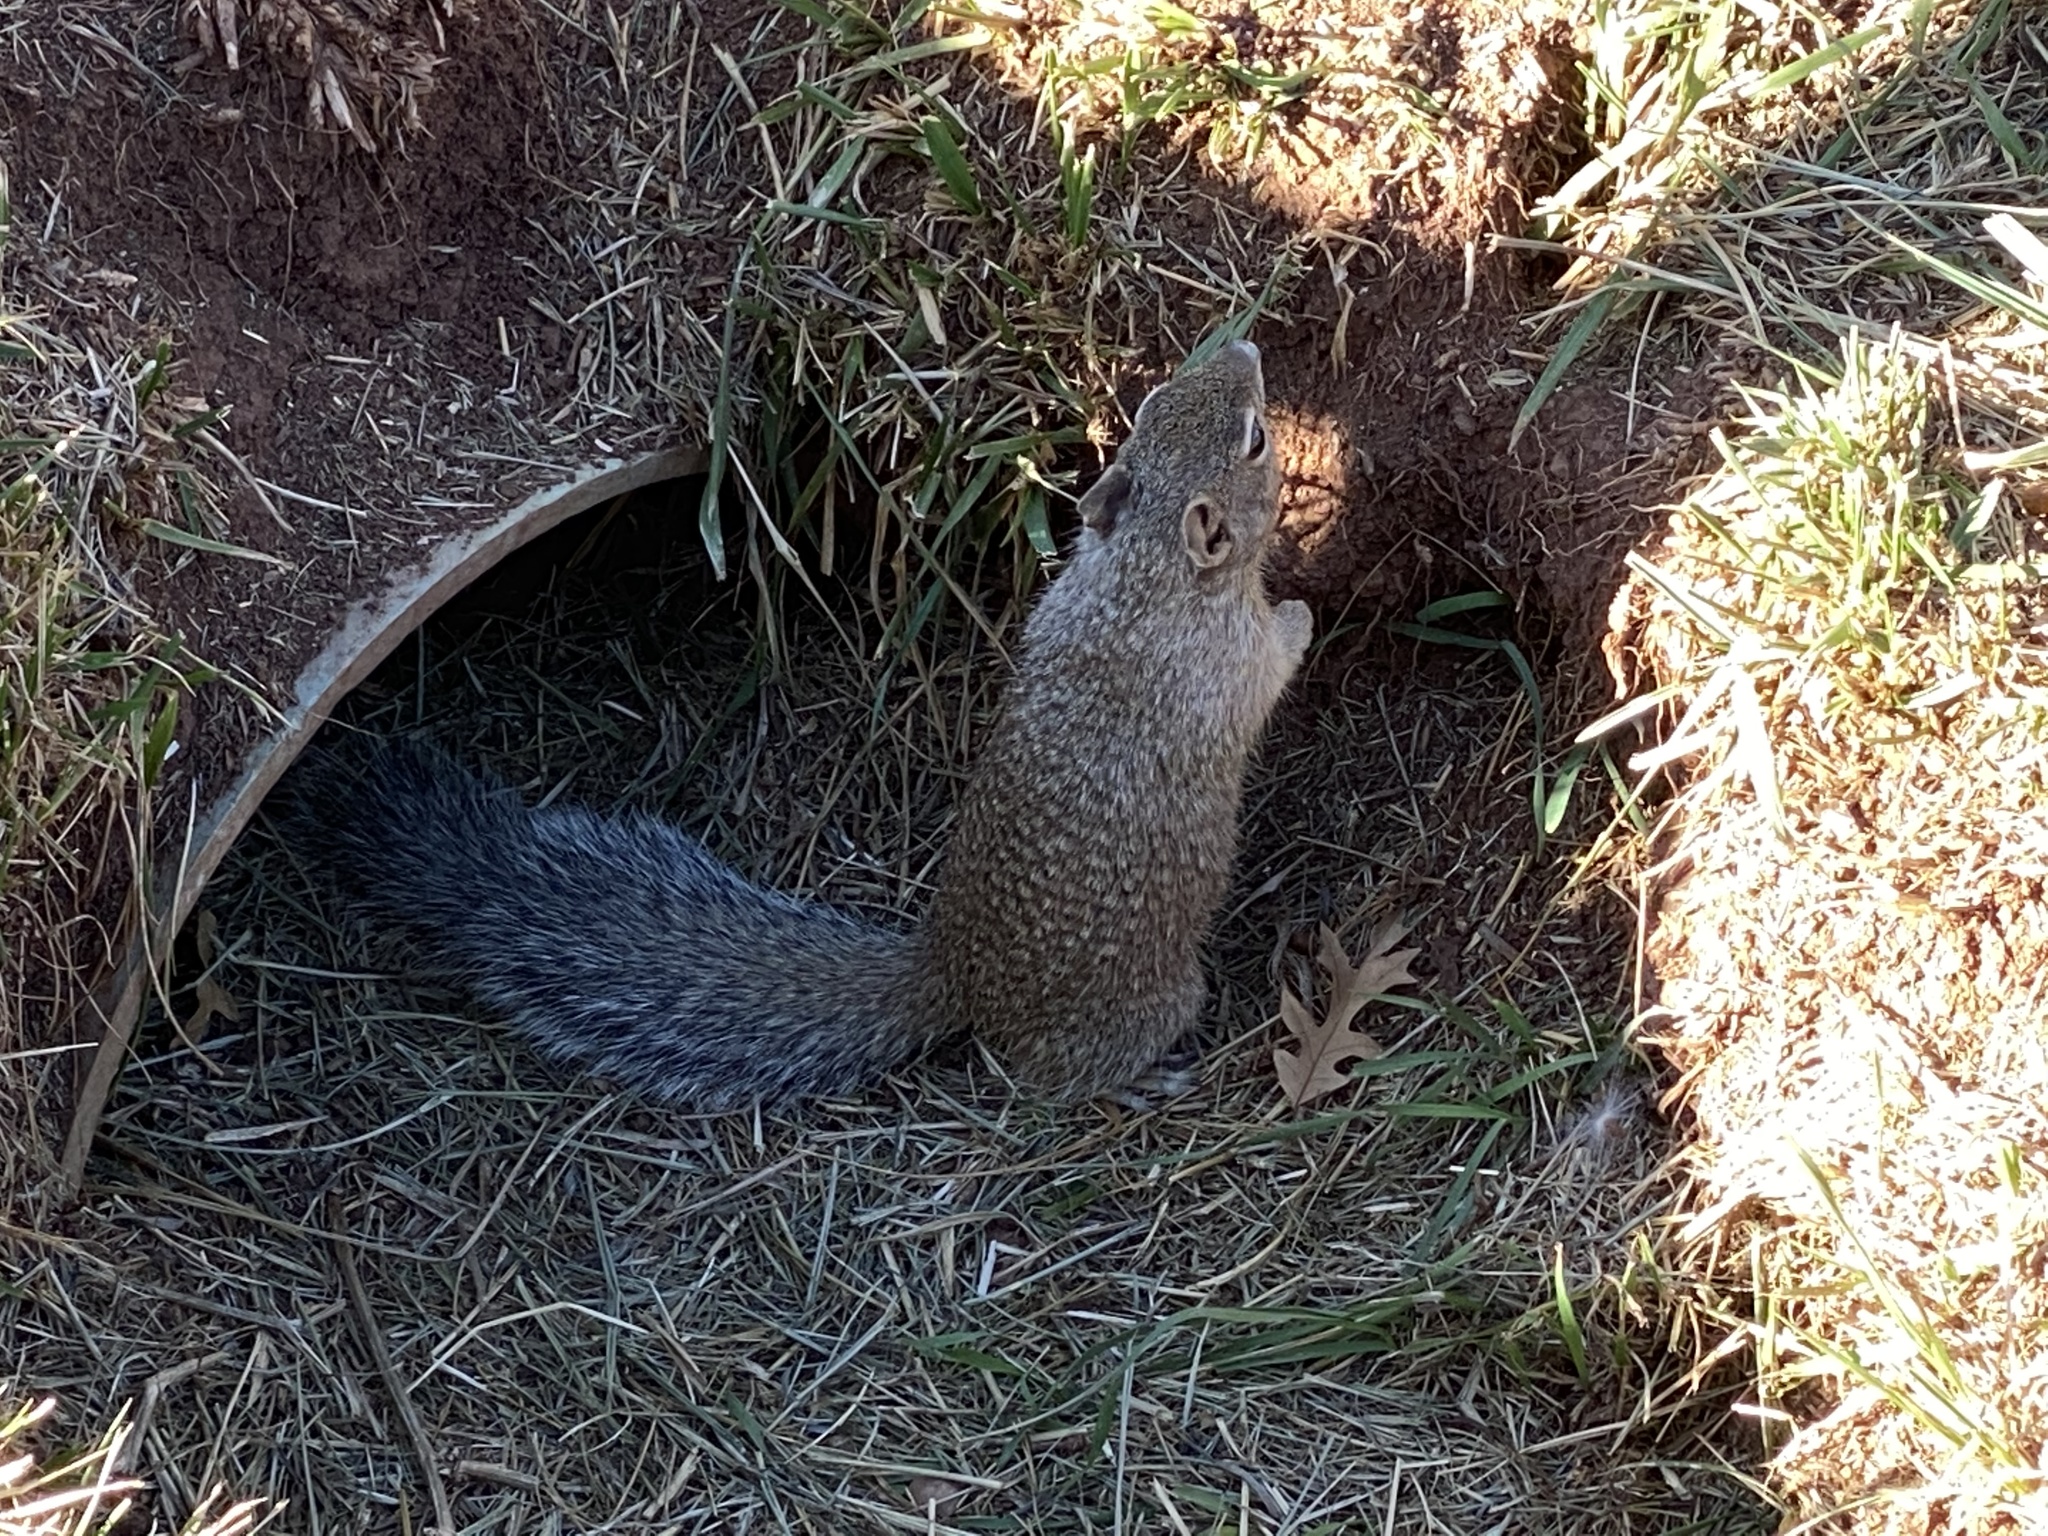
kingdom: Animalia
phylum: Chordata
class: Mammalia
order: Rodentia
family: Sciuridae
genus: Otospermophilus
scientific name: Otospermophilus variegatus
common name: Rock squirrel
